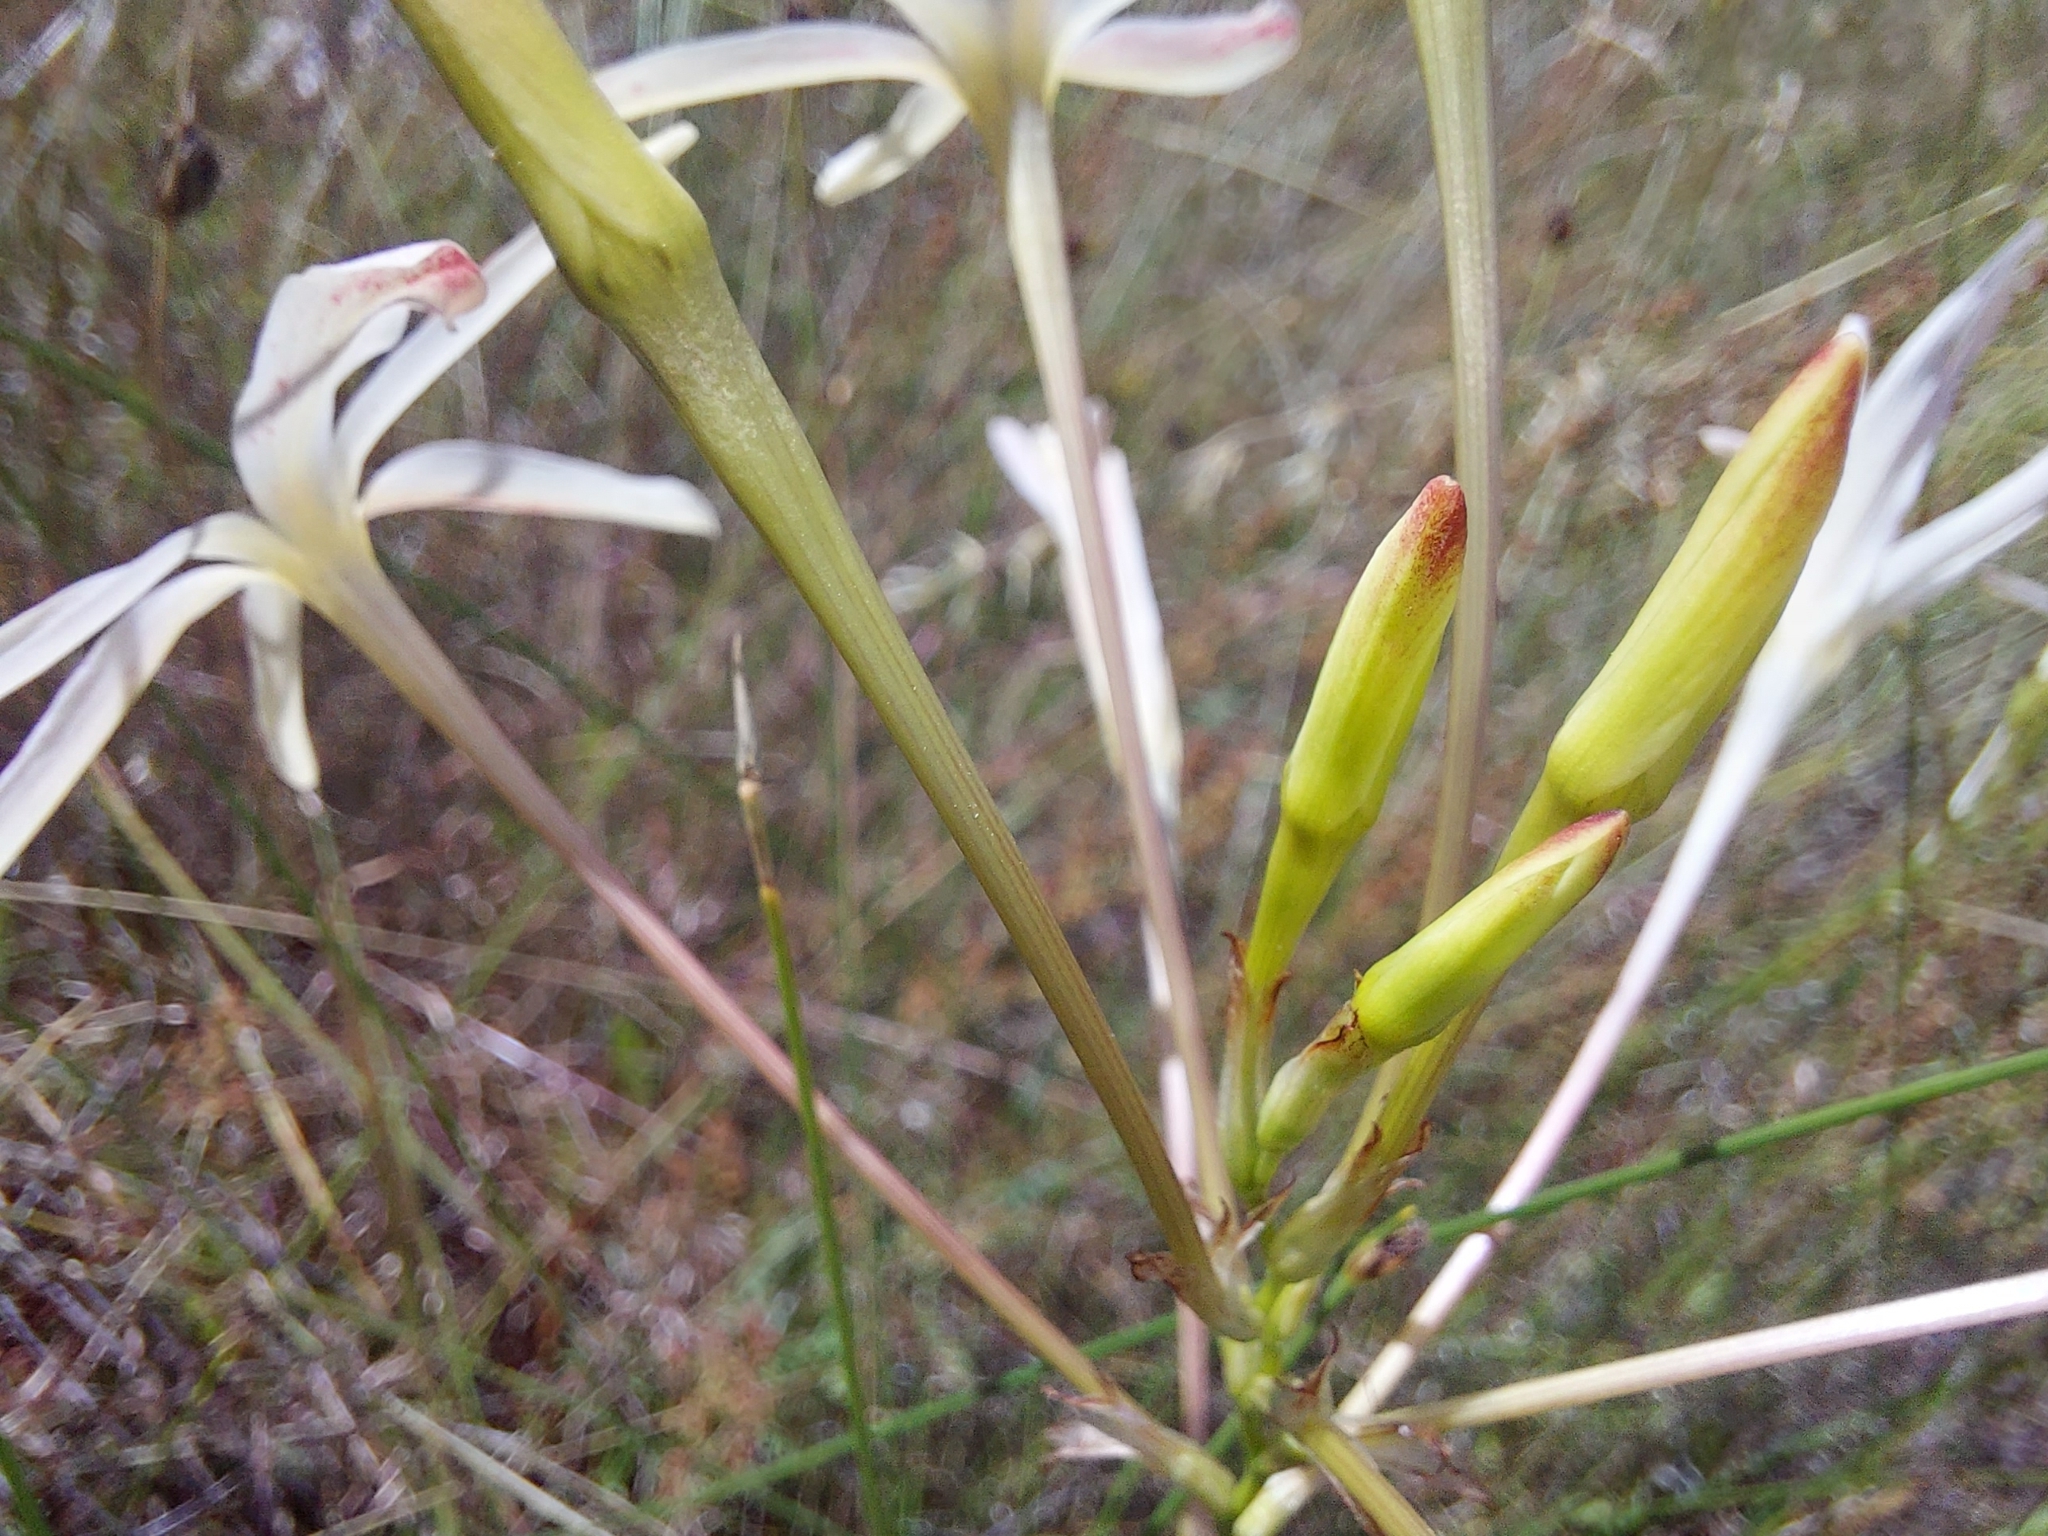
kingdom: Plantae
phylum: Tracheophyta
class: Liliopsida
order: Asparagales
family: Iridaceae
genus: Ixia
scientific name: Ixia paniculata
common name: Tubular corn-lily
